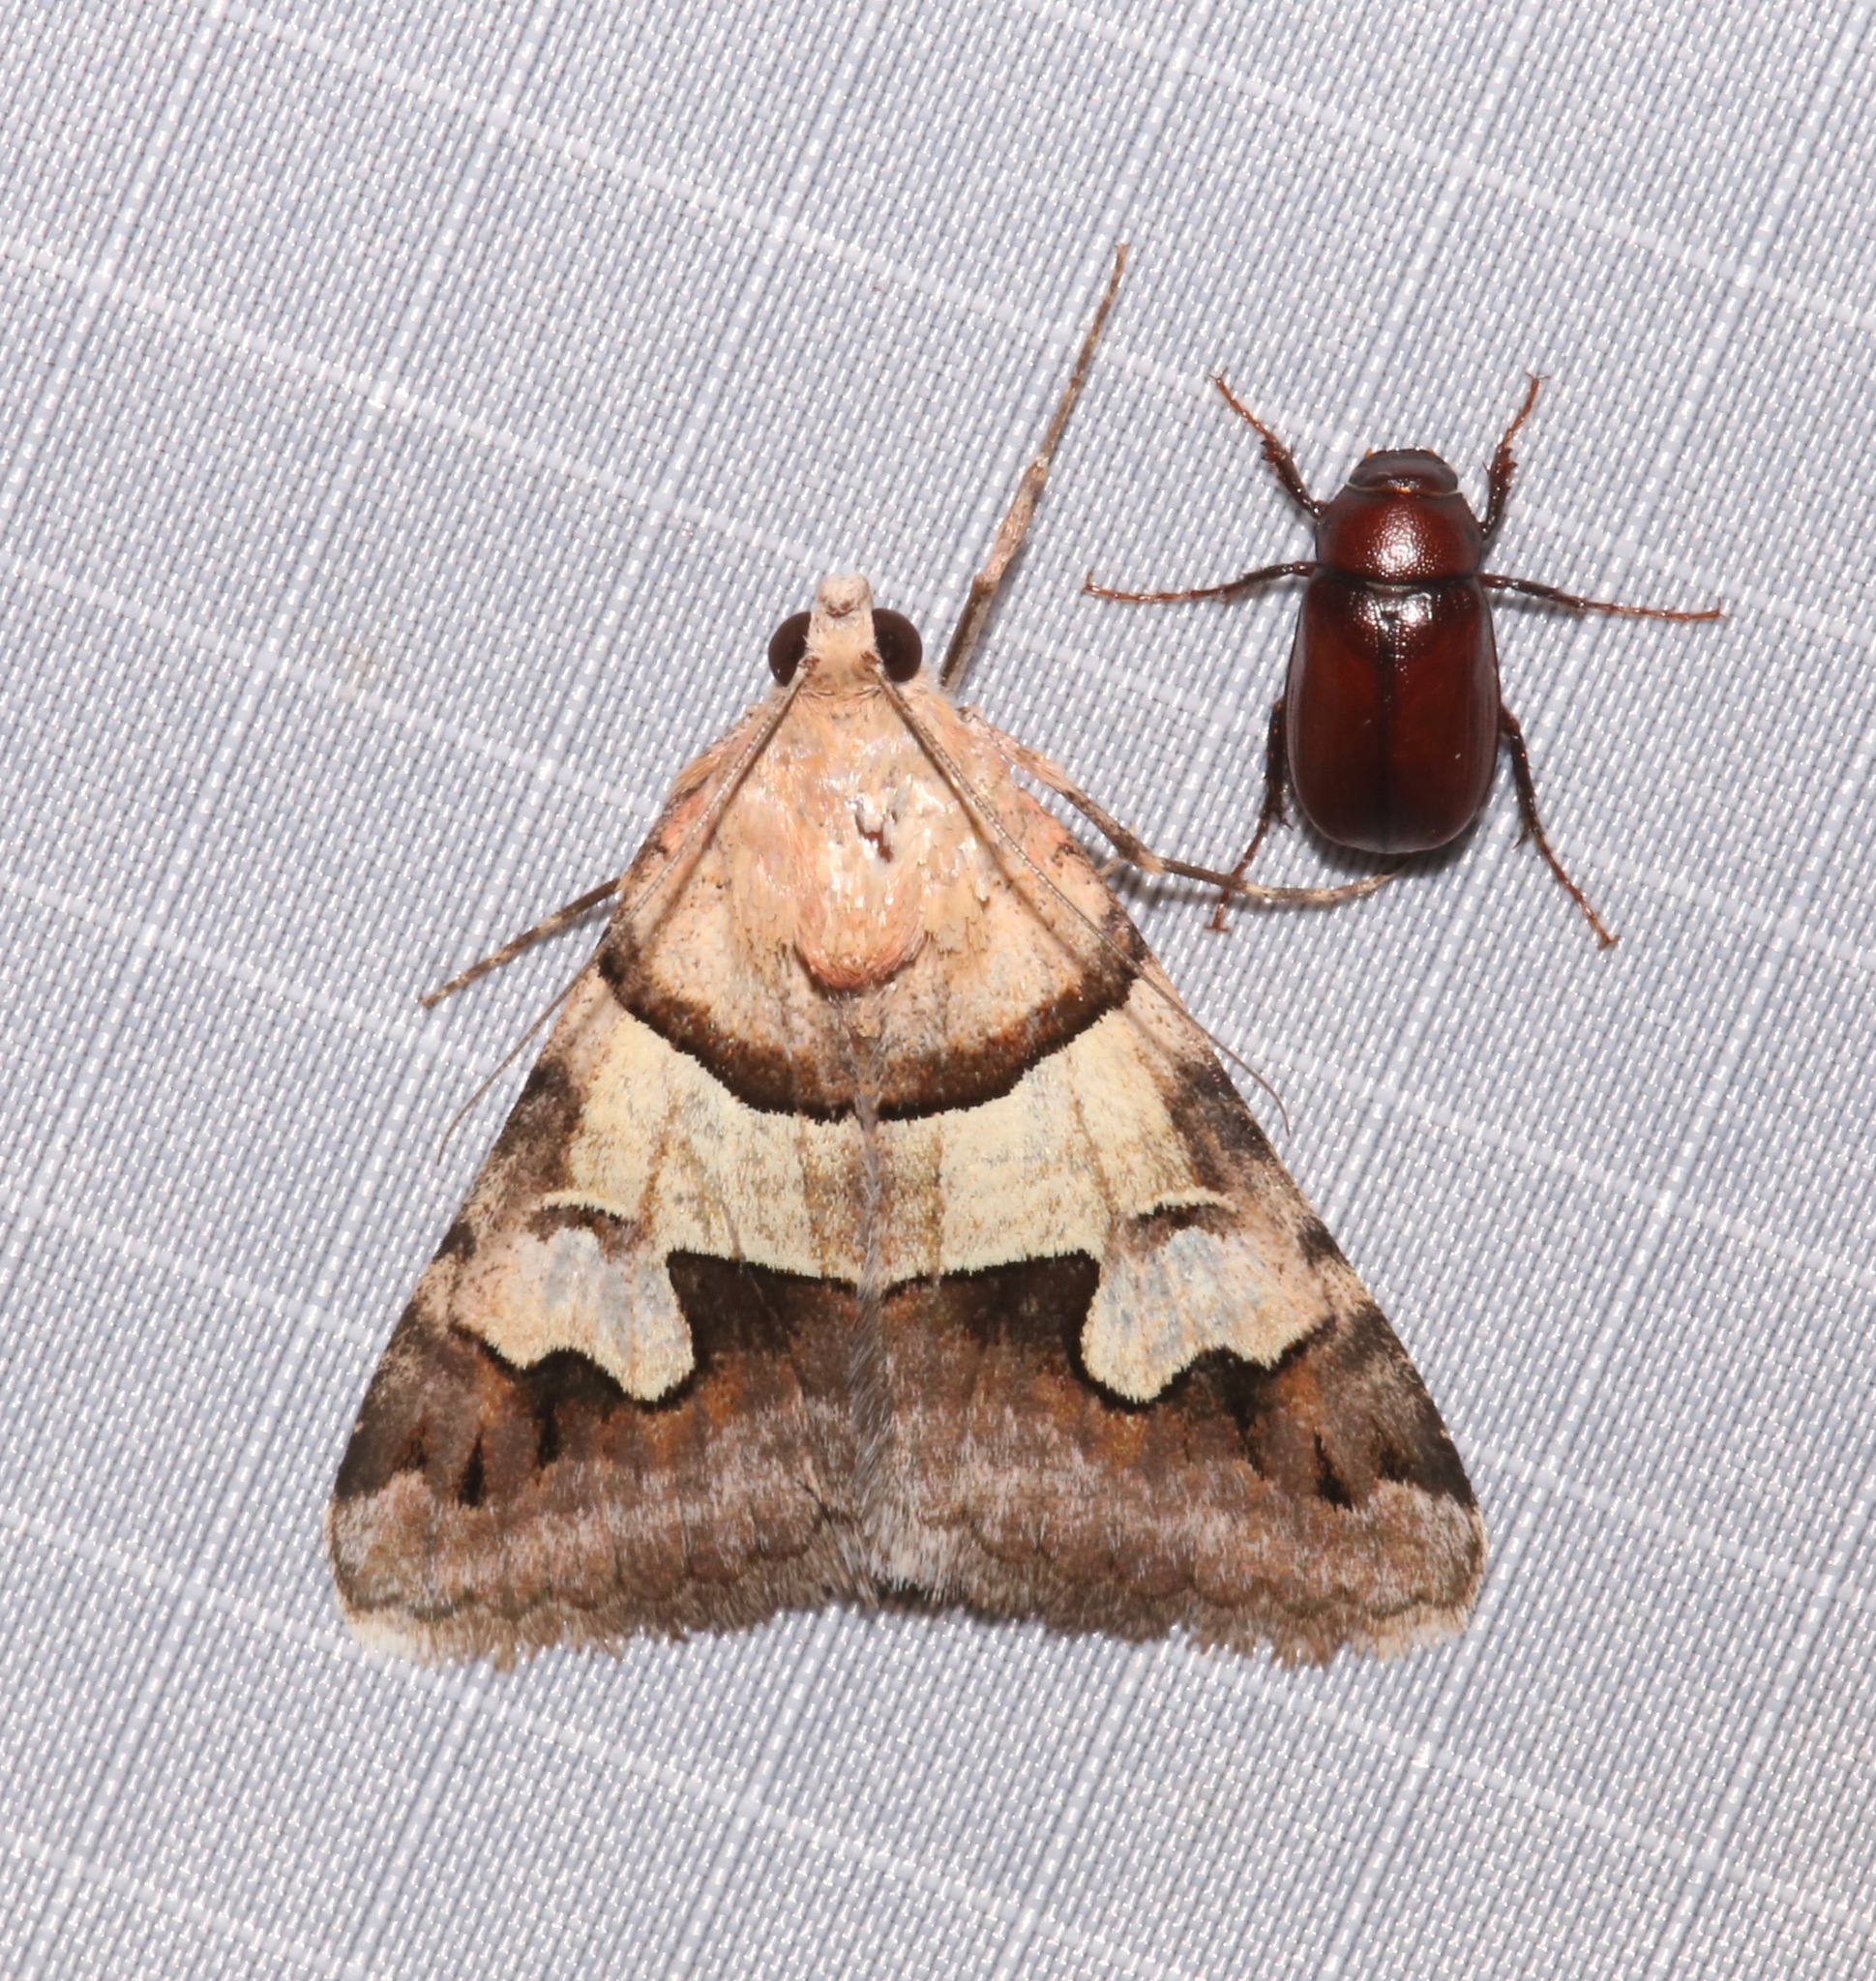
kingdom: Animalia
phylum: Arthropoda
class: Insecta
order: Lepidoptera
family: Erebidae
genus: Drasteria
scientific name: Drasteria pallescens
